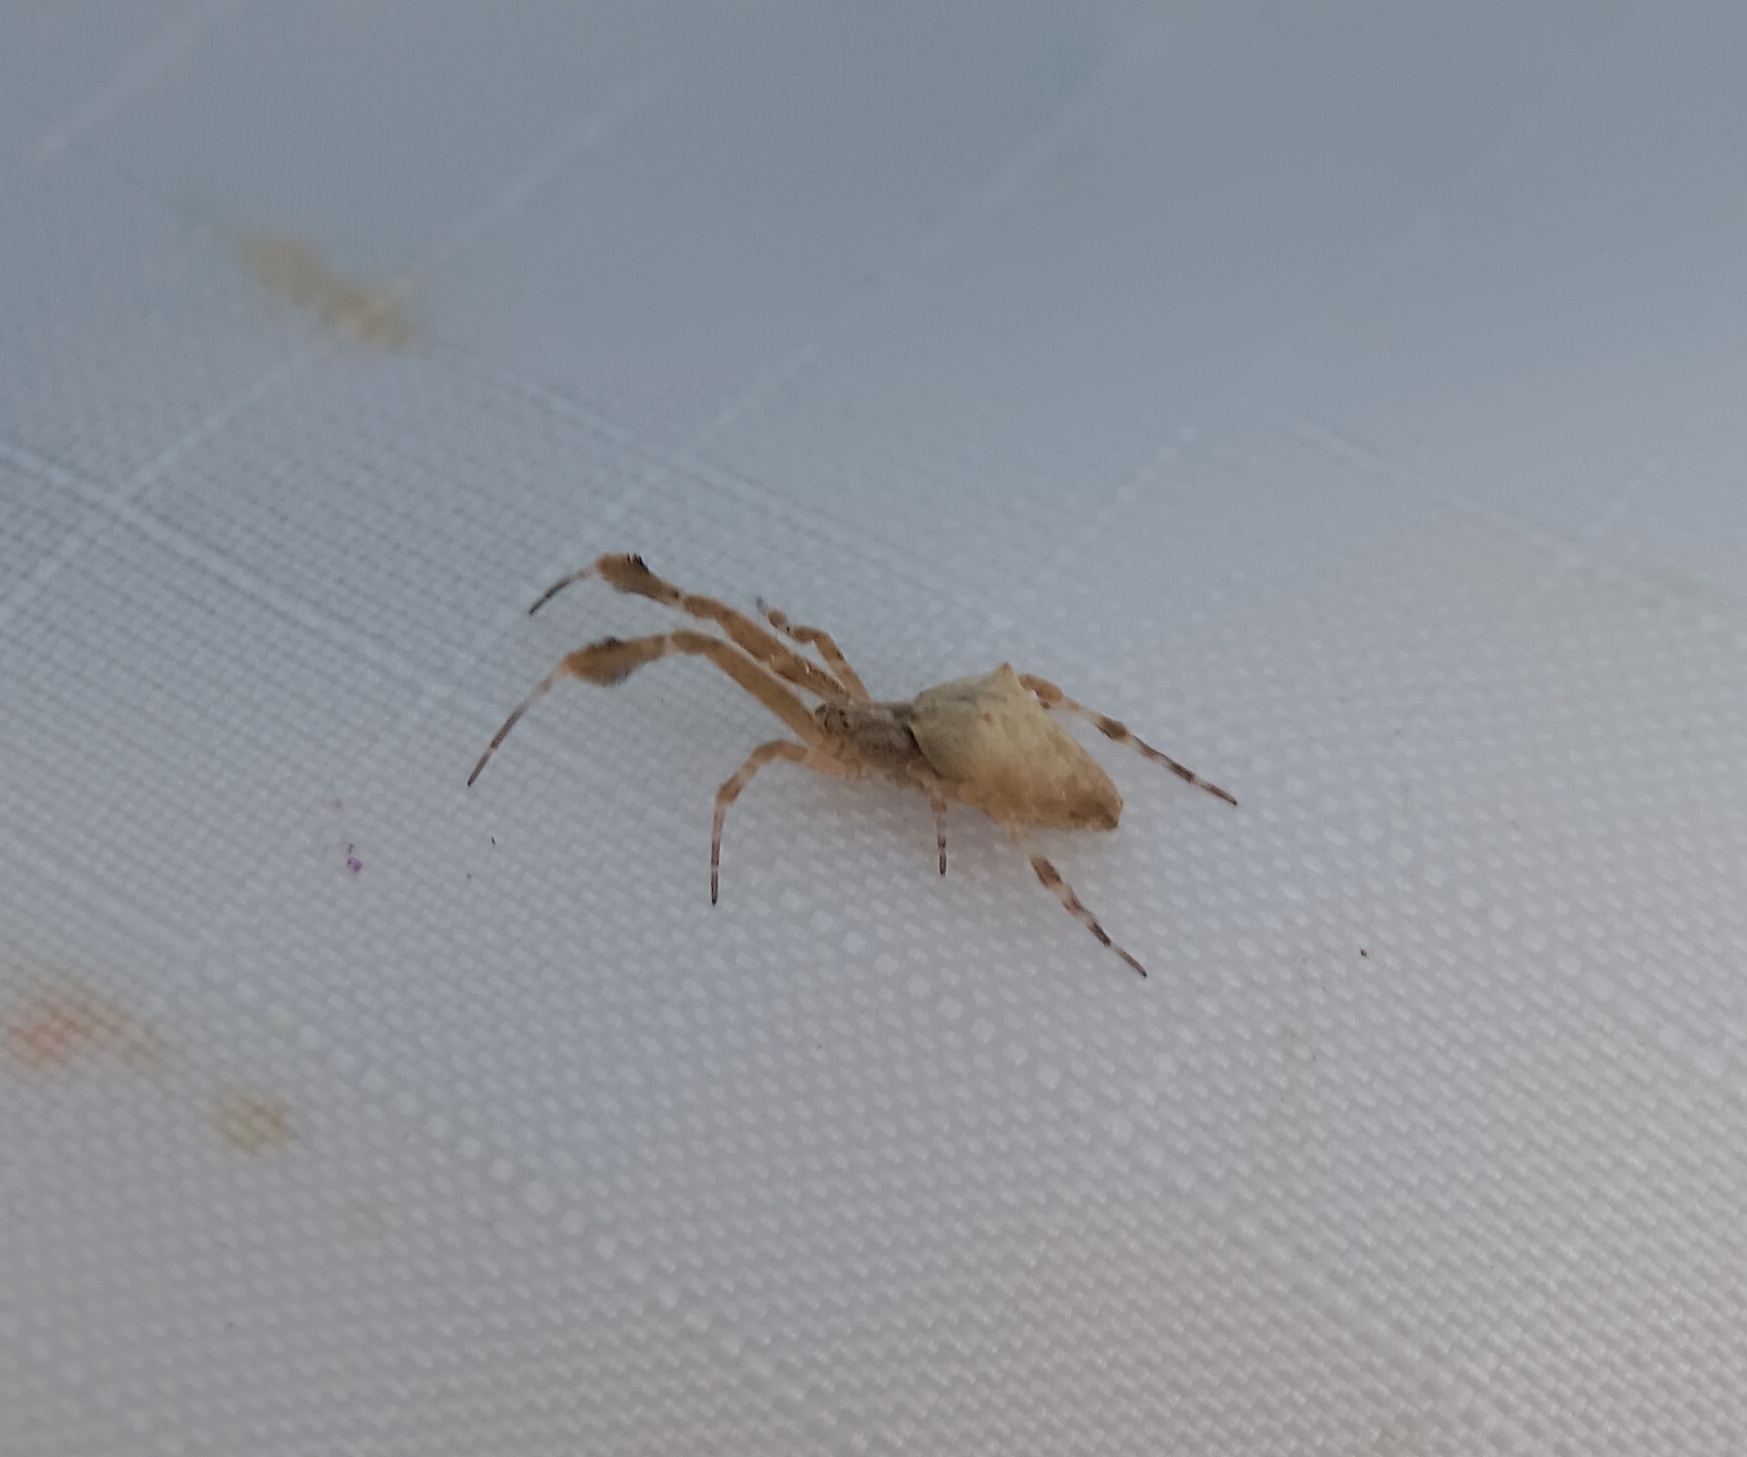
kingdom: Animalia
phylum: Arthropoda
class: Arachnida
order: Araneae
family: Uloboridae
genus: Uloborus
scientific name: Uloborus glomosus
